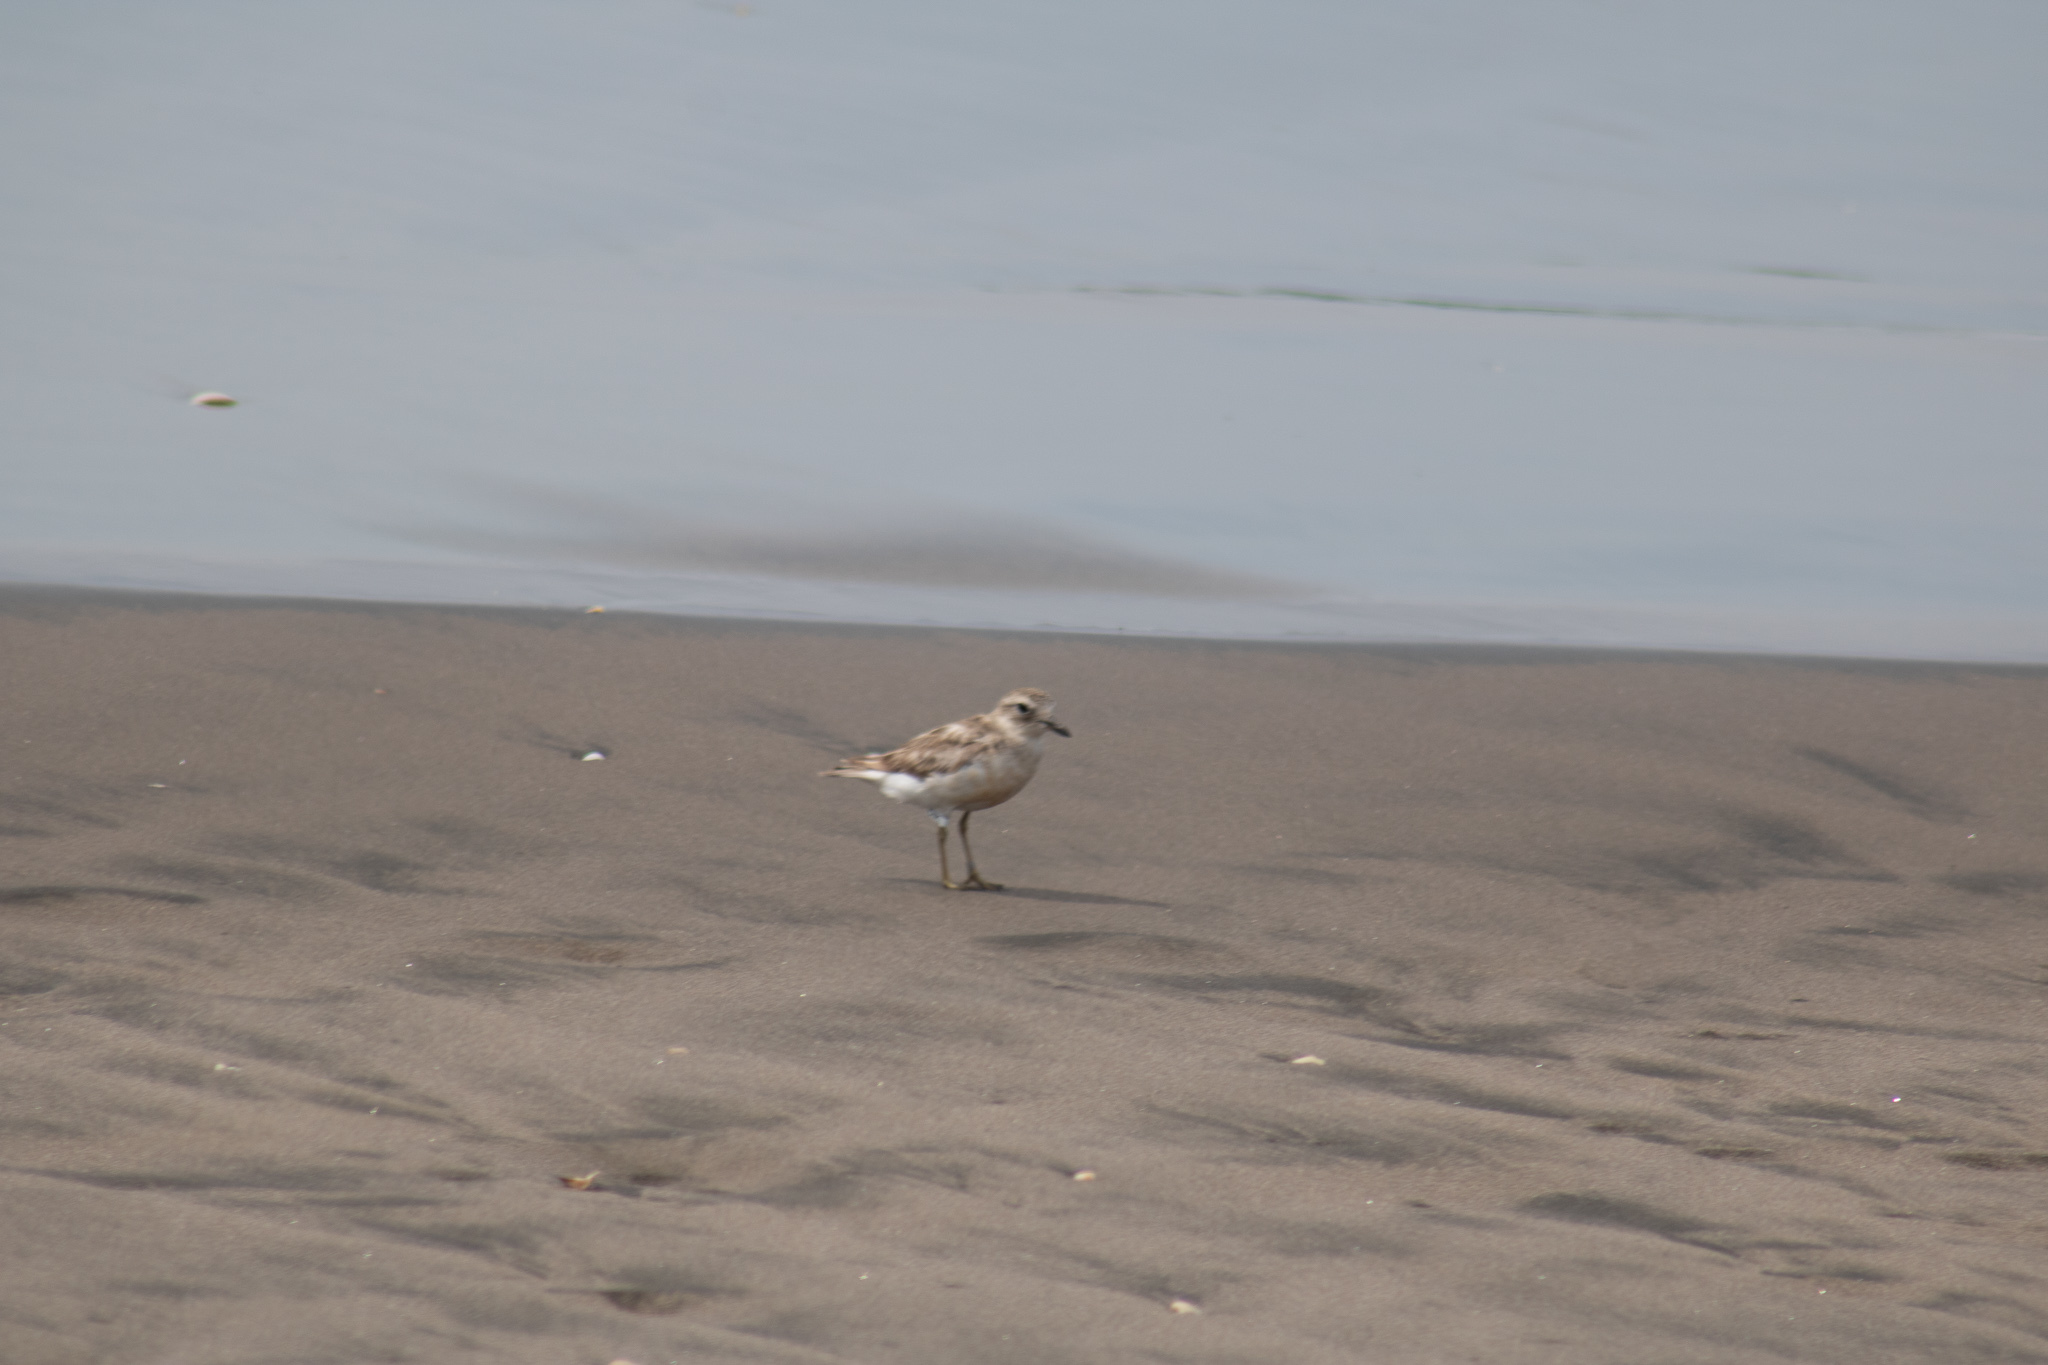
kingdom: Animalia
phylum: Chordata
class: Aves
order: Charadriiformes
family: Charadriidae
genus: Anarhynchus
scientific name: Anarhynchus
